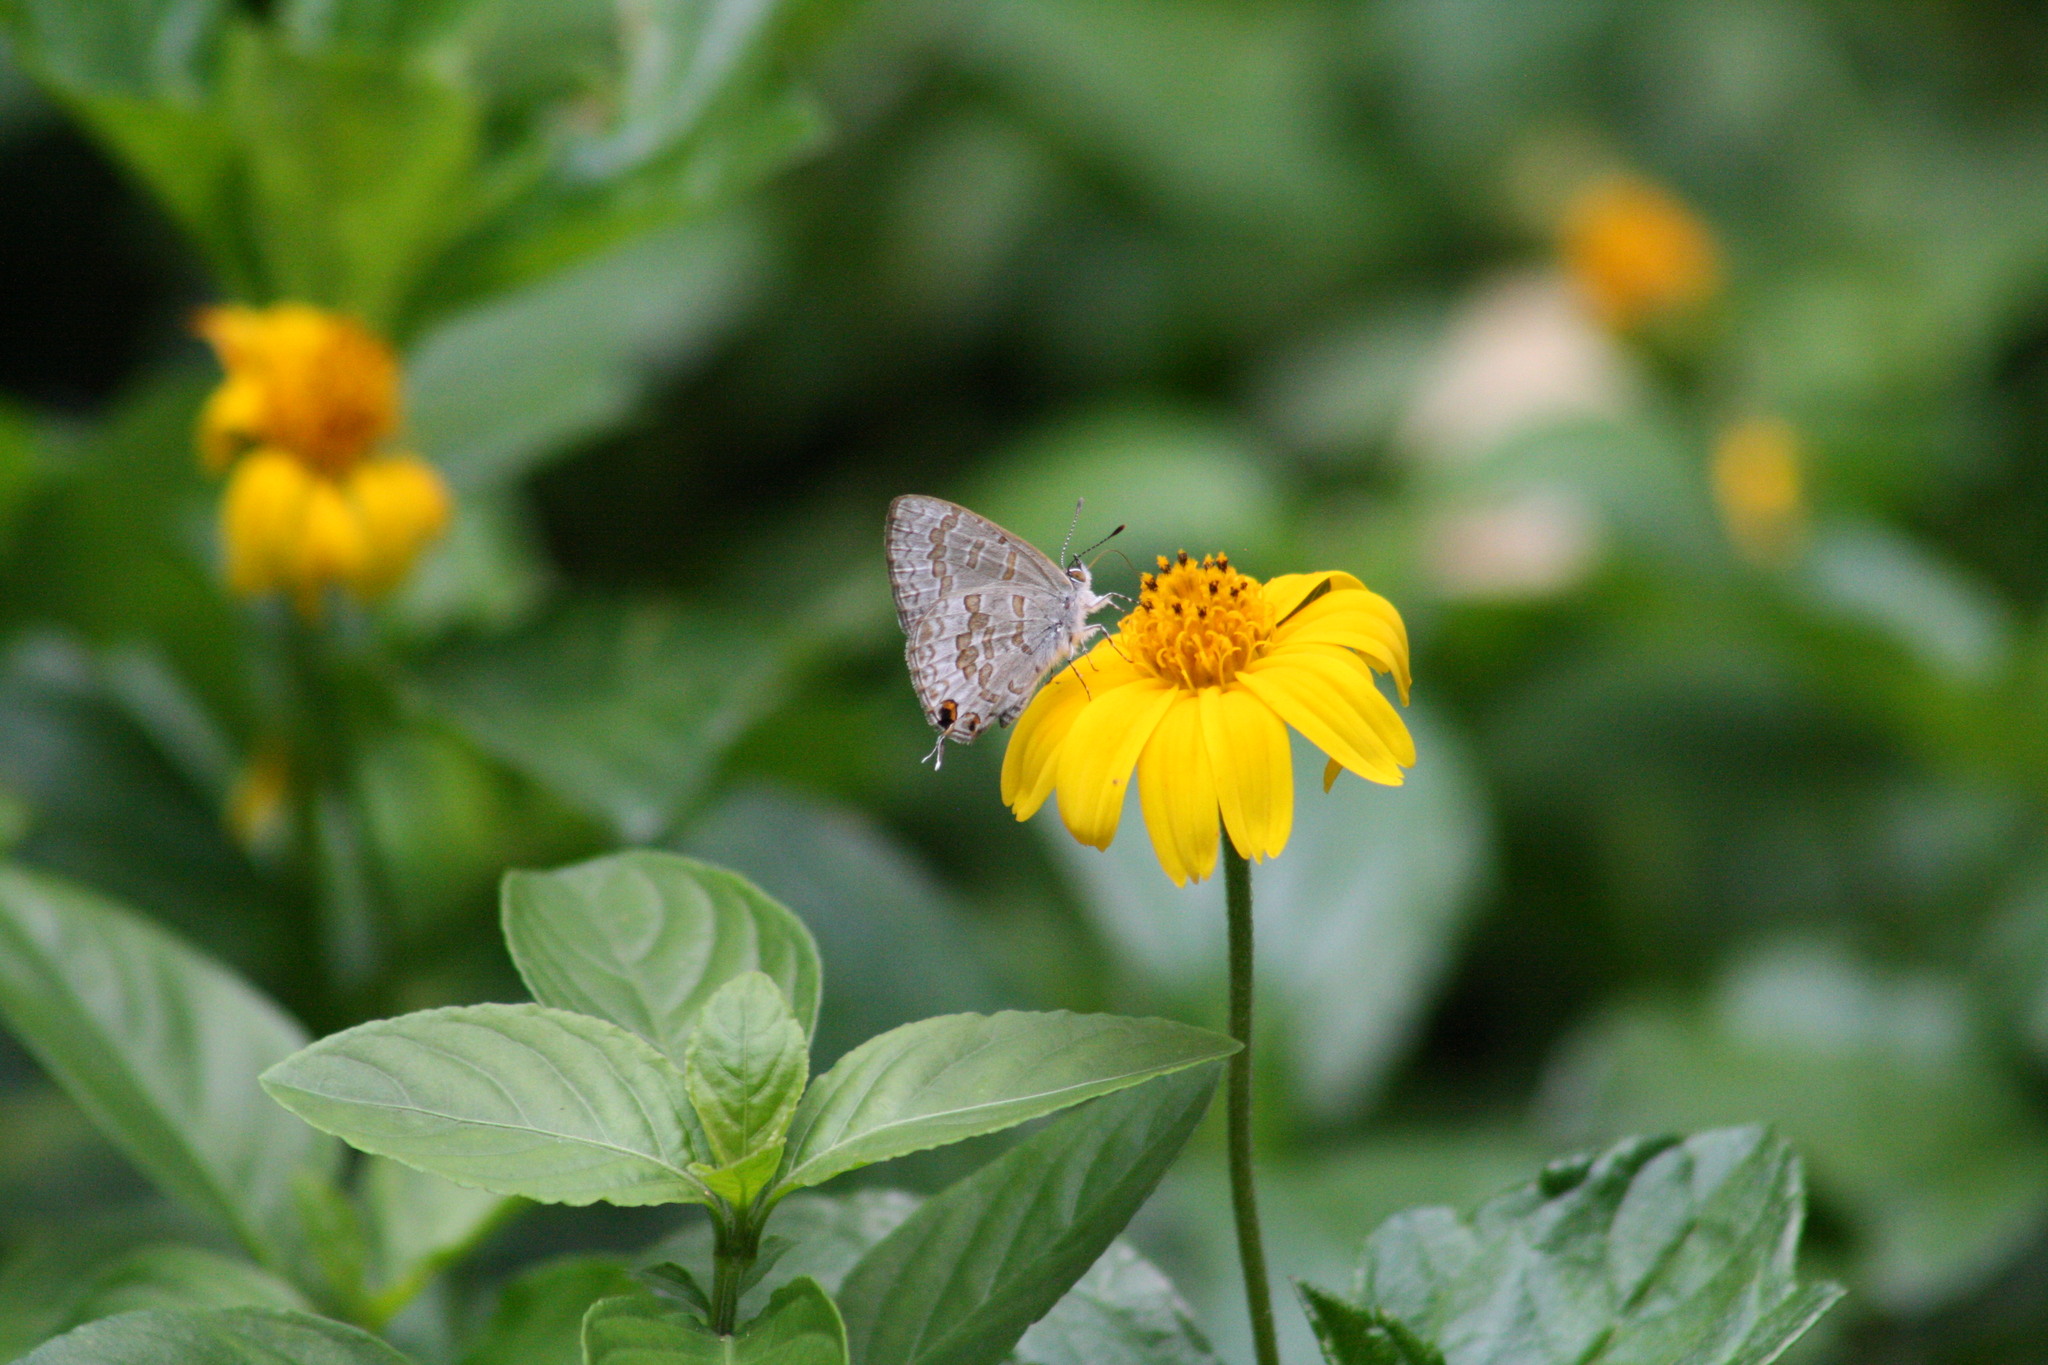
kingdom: Animalia
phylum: Arthropoda
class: Insecta
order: Lepidoptera
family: Lycaenidae
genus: Catopyrops
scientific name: Catopyrops florinda
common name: Speckled line-blue
